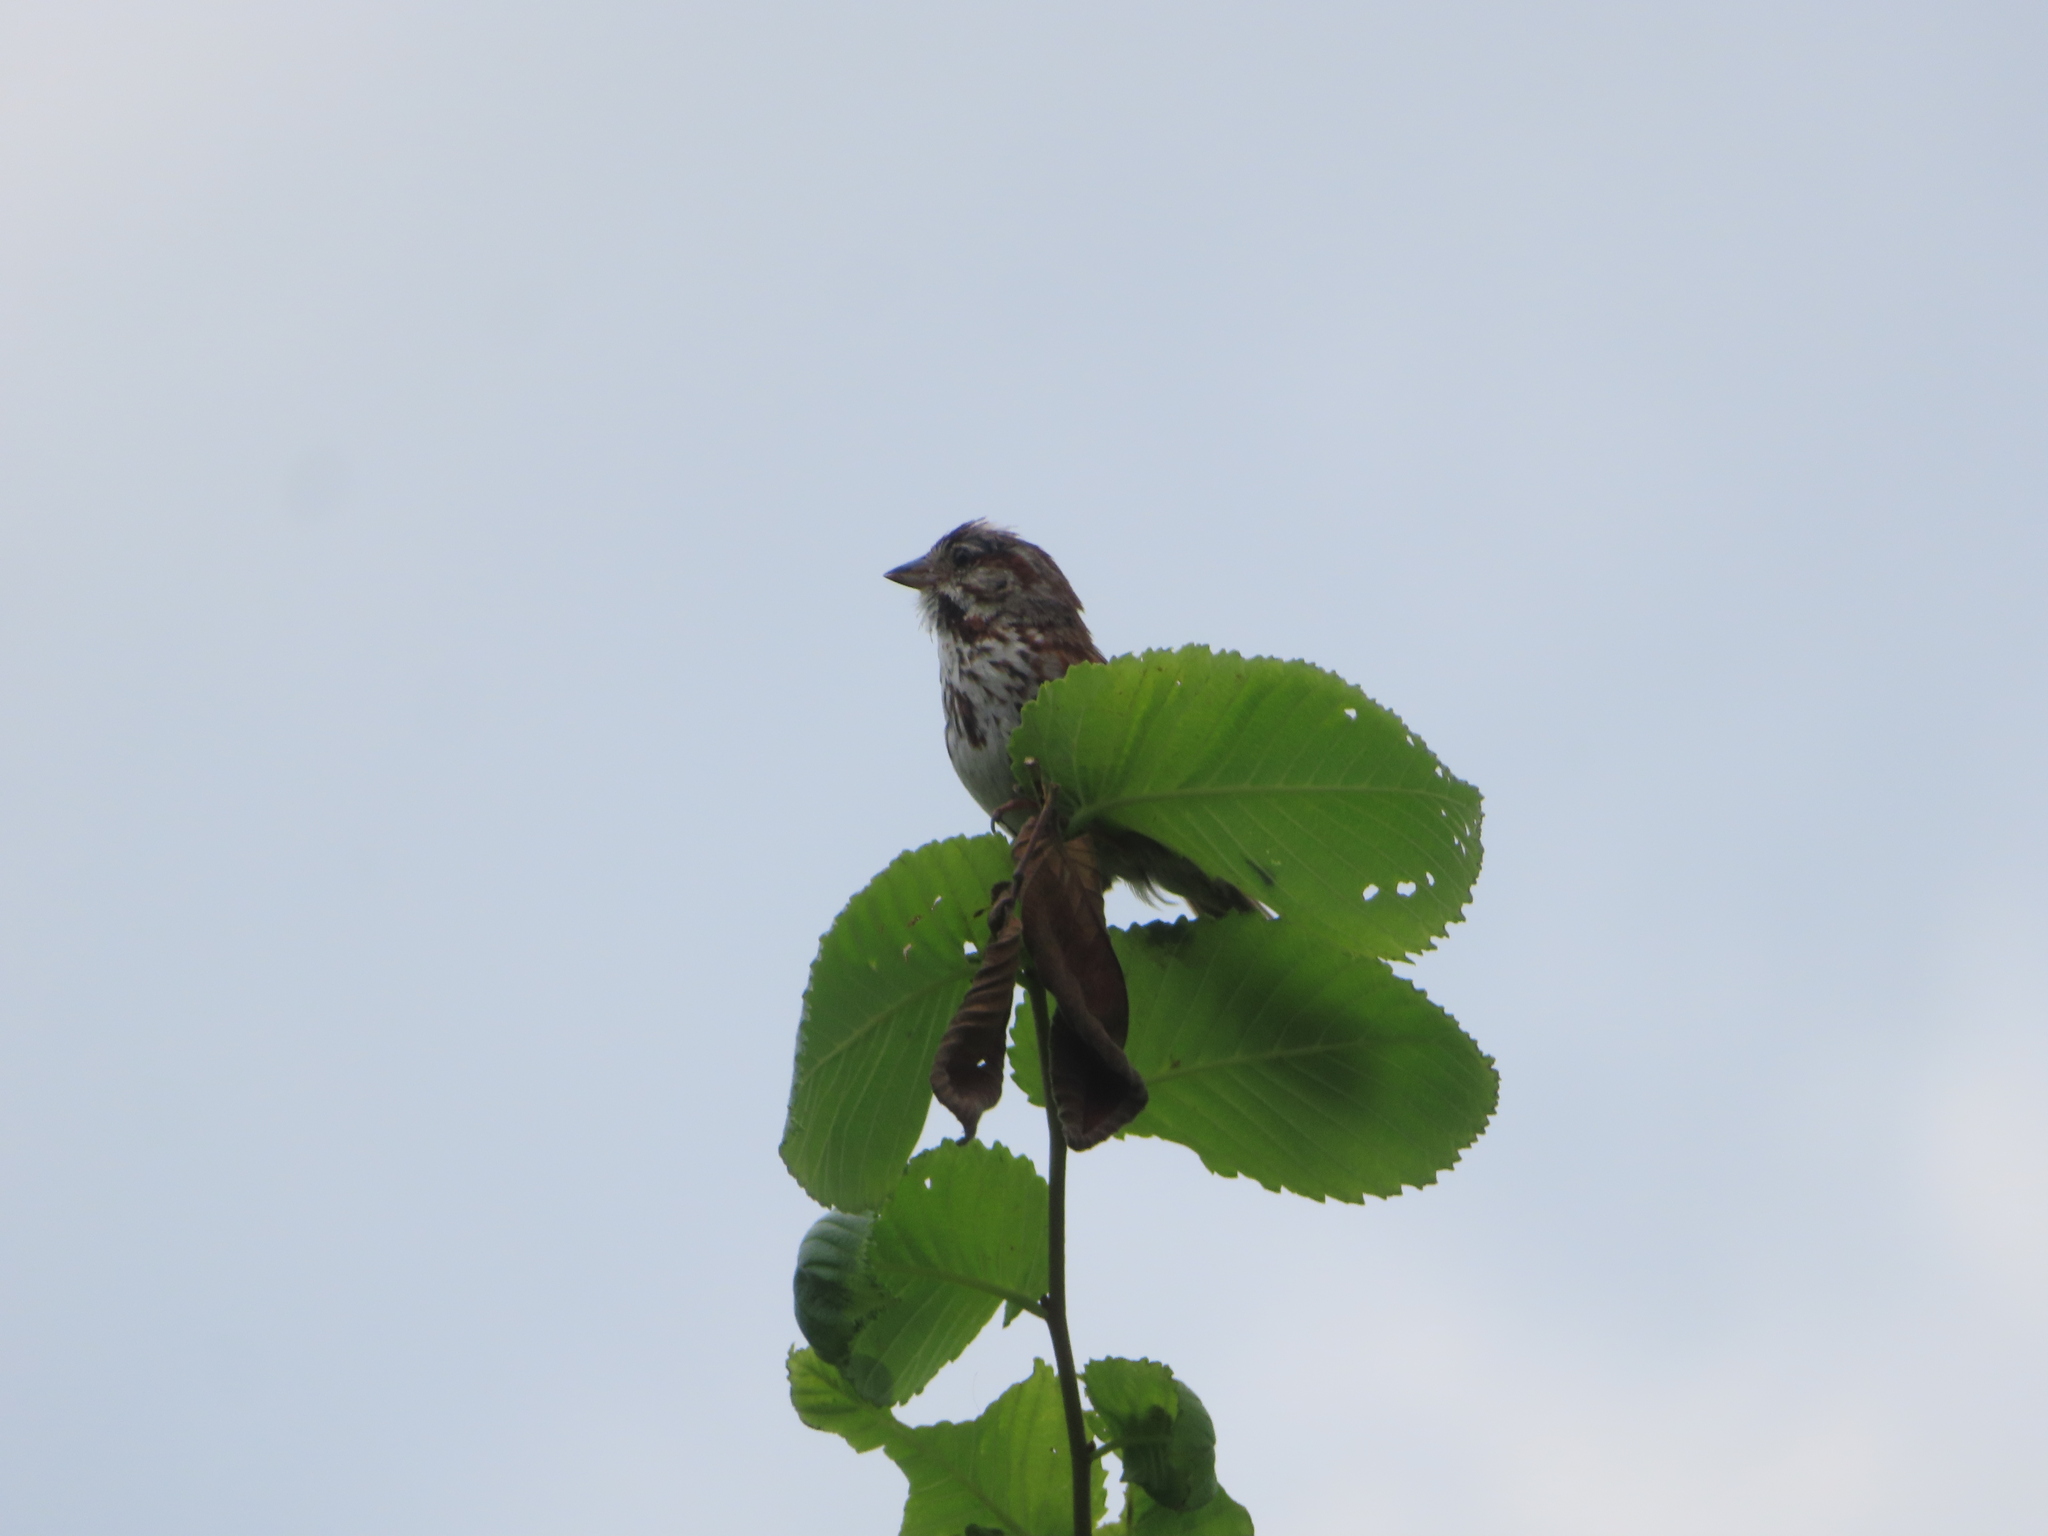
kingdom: Animalia
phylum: Chordata
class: Aves
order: Passeriformes
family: Passerellidae
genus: Melospiza
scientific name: Melospiza melodia
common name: Song sparrow
